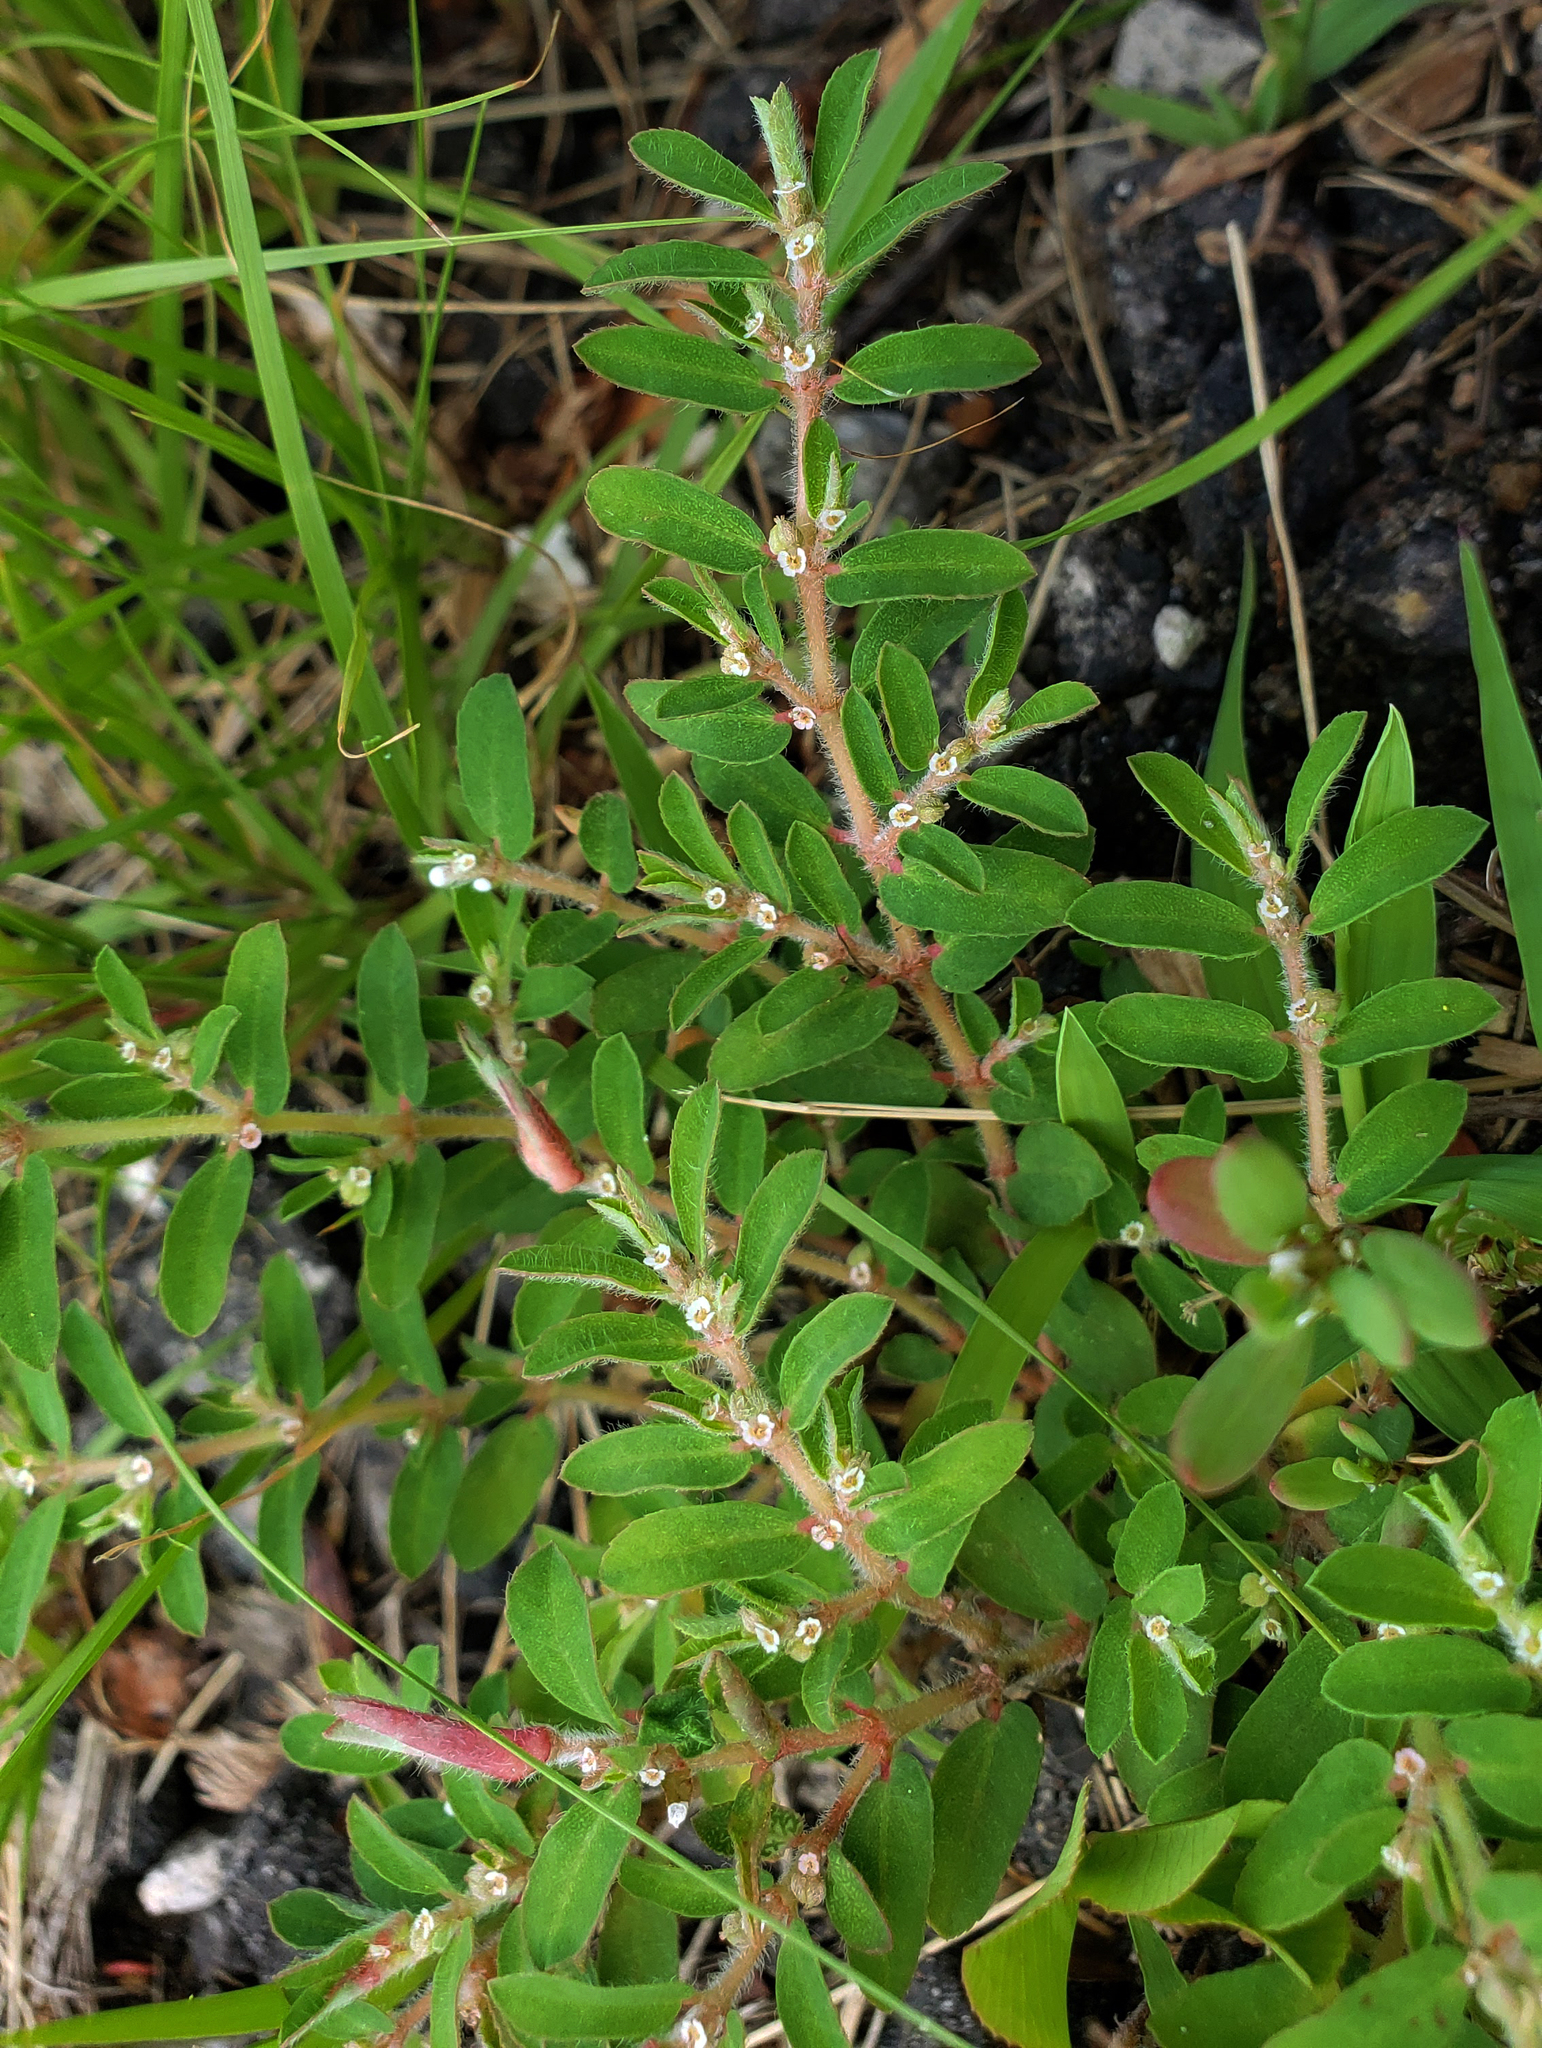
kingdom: Plantae
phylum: Tracheophyta
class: Magnoliopsida
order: Malpighiales
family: Euphorbiaceae
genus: Euphorbia
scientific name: Euphorbia maculata
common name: Spotted spurge
